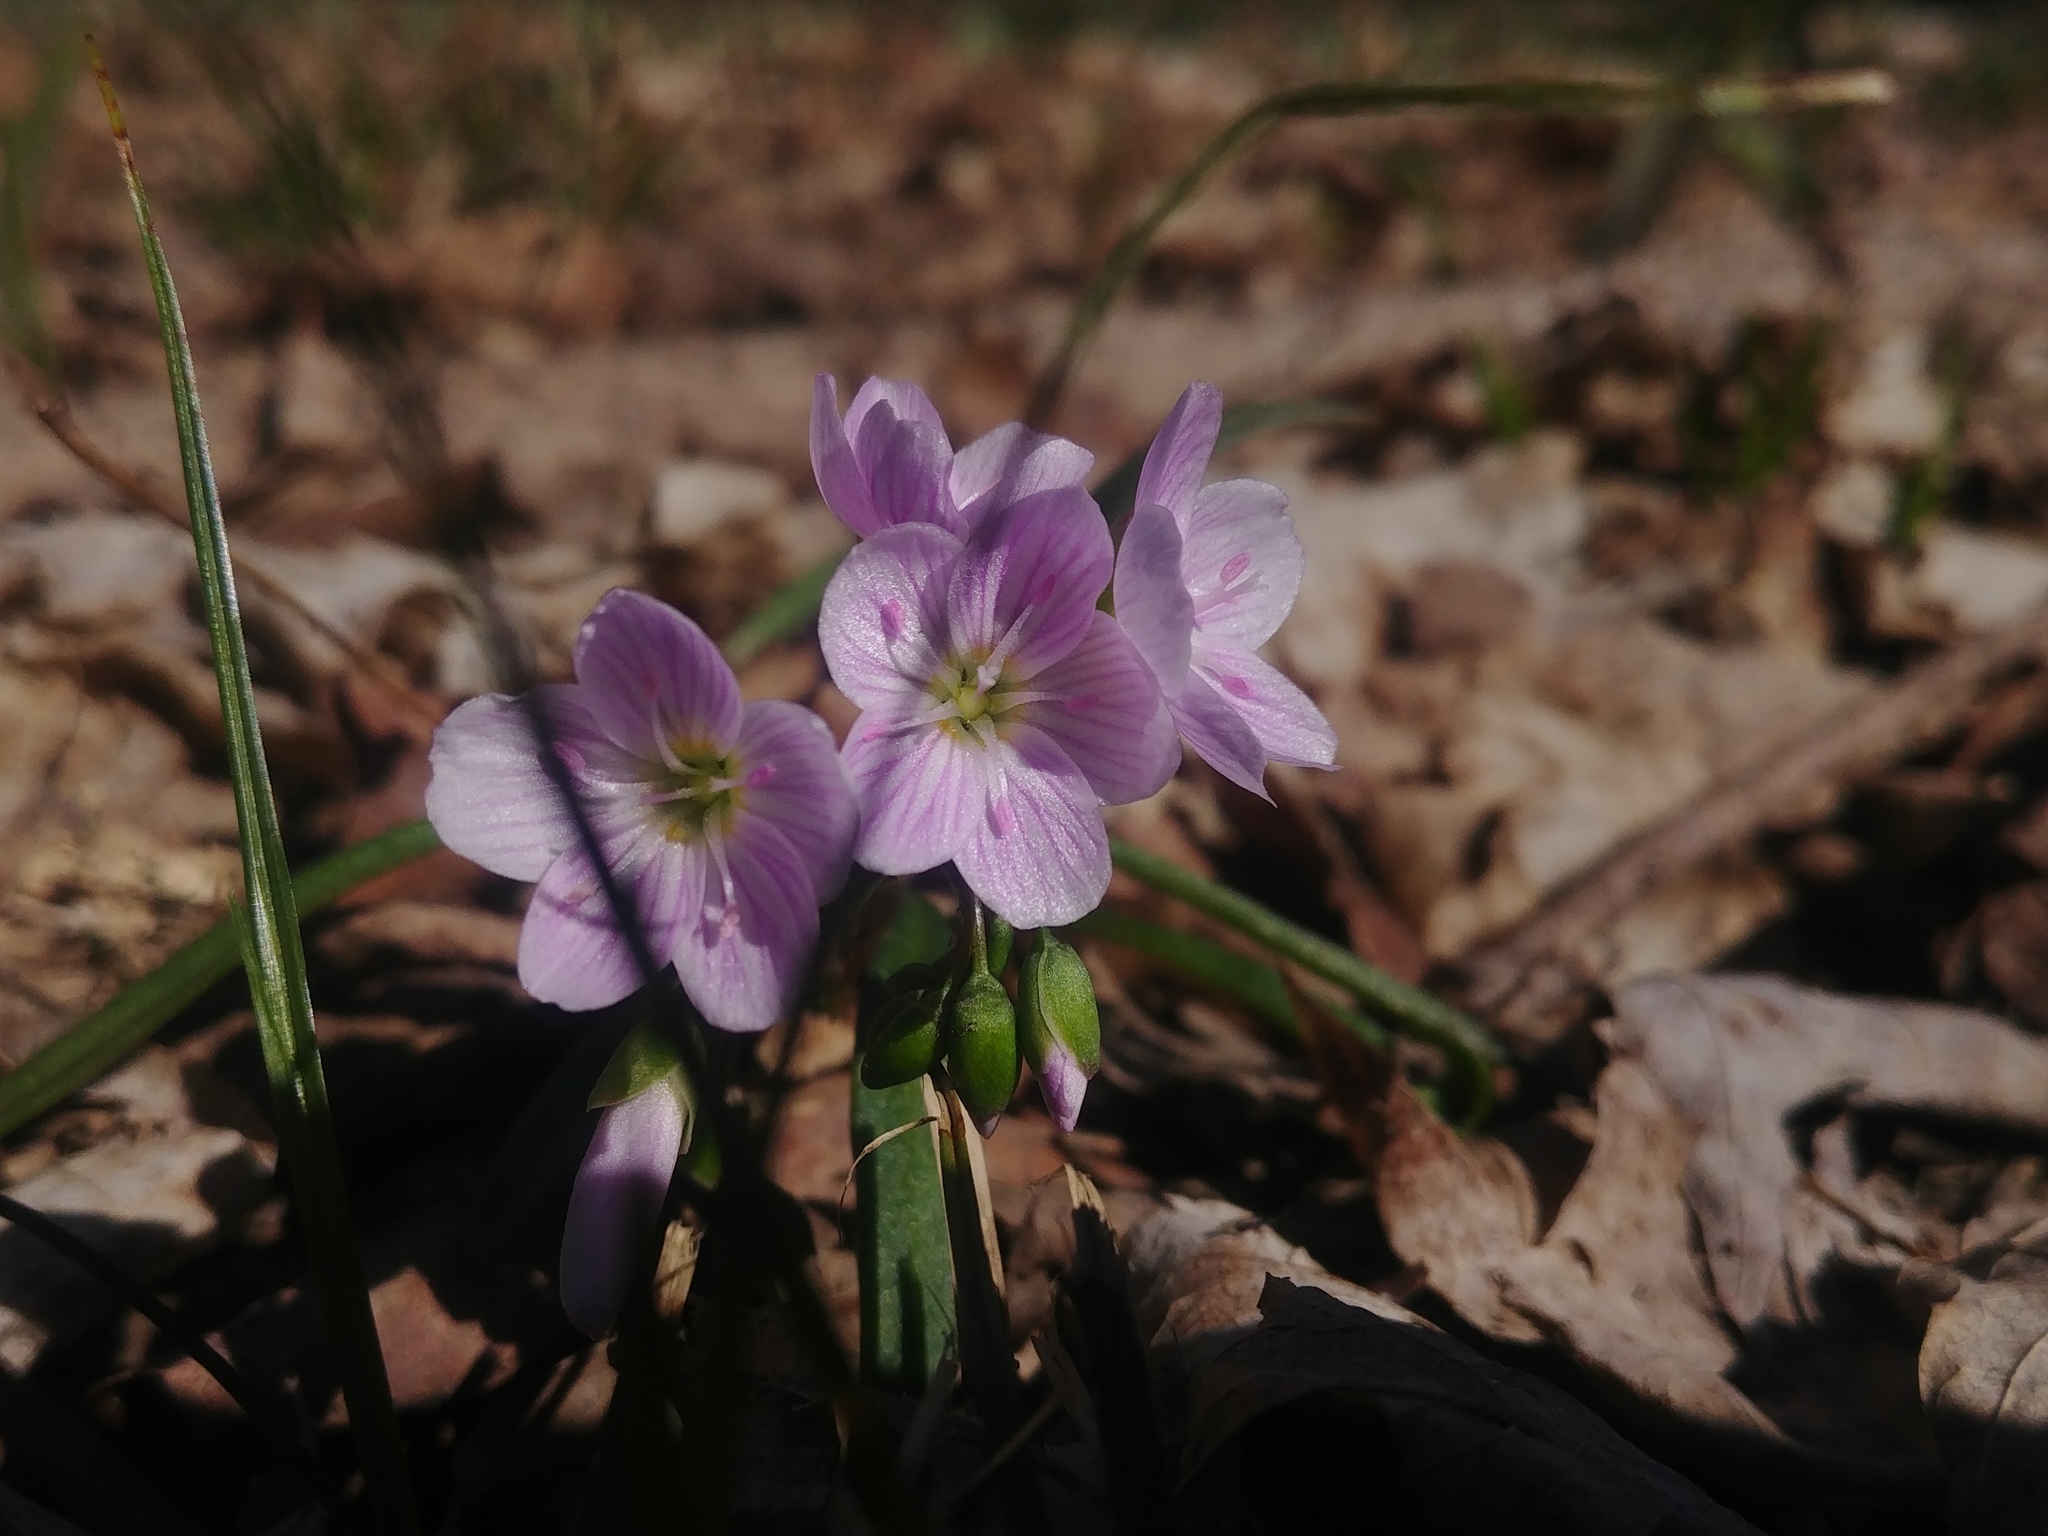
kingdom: Plantae
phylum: Tracheophyta
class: Magnoliopsida
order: Caryophyllales
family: Montiaceae
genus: Claytonia
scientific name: Claytonia virginica
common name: Virginia springbeauty
